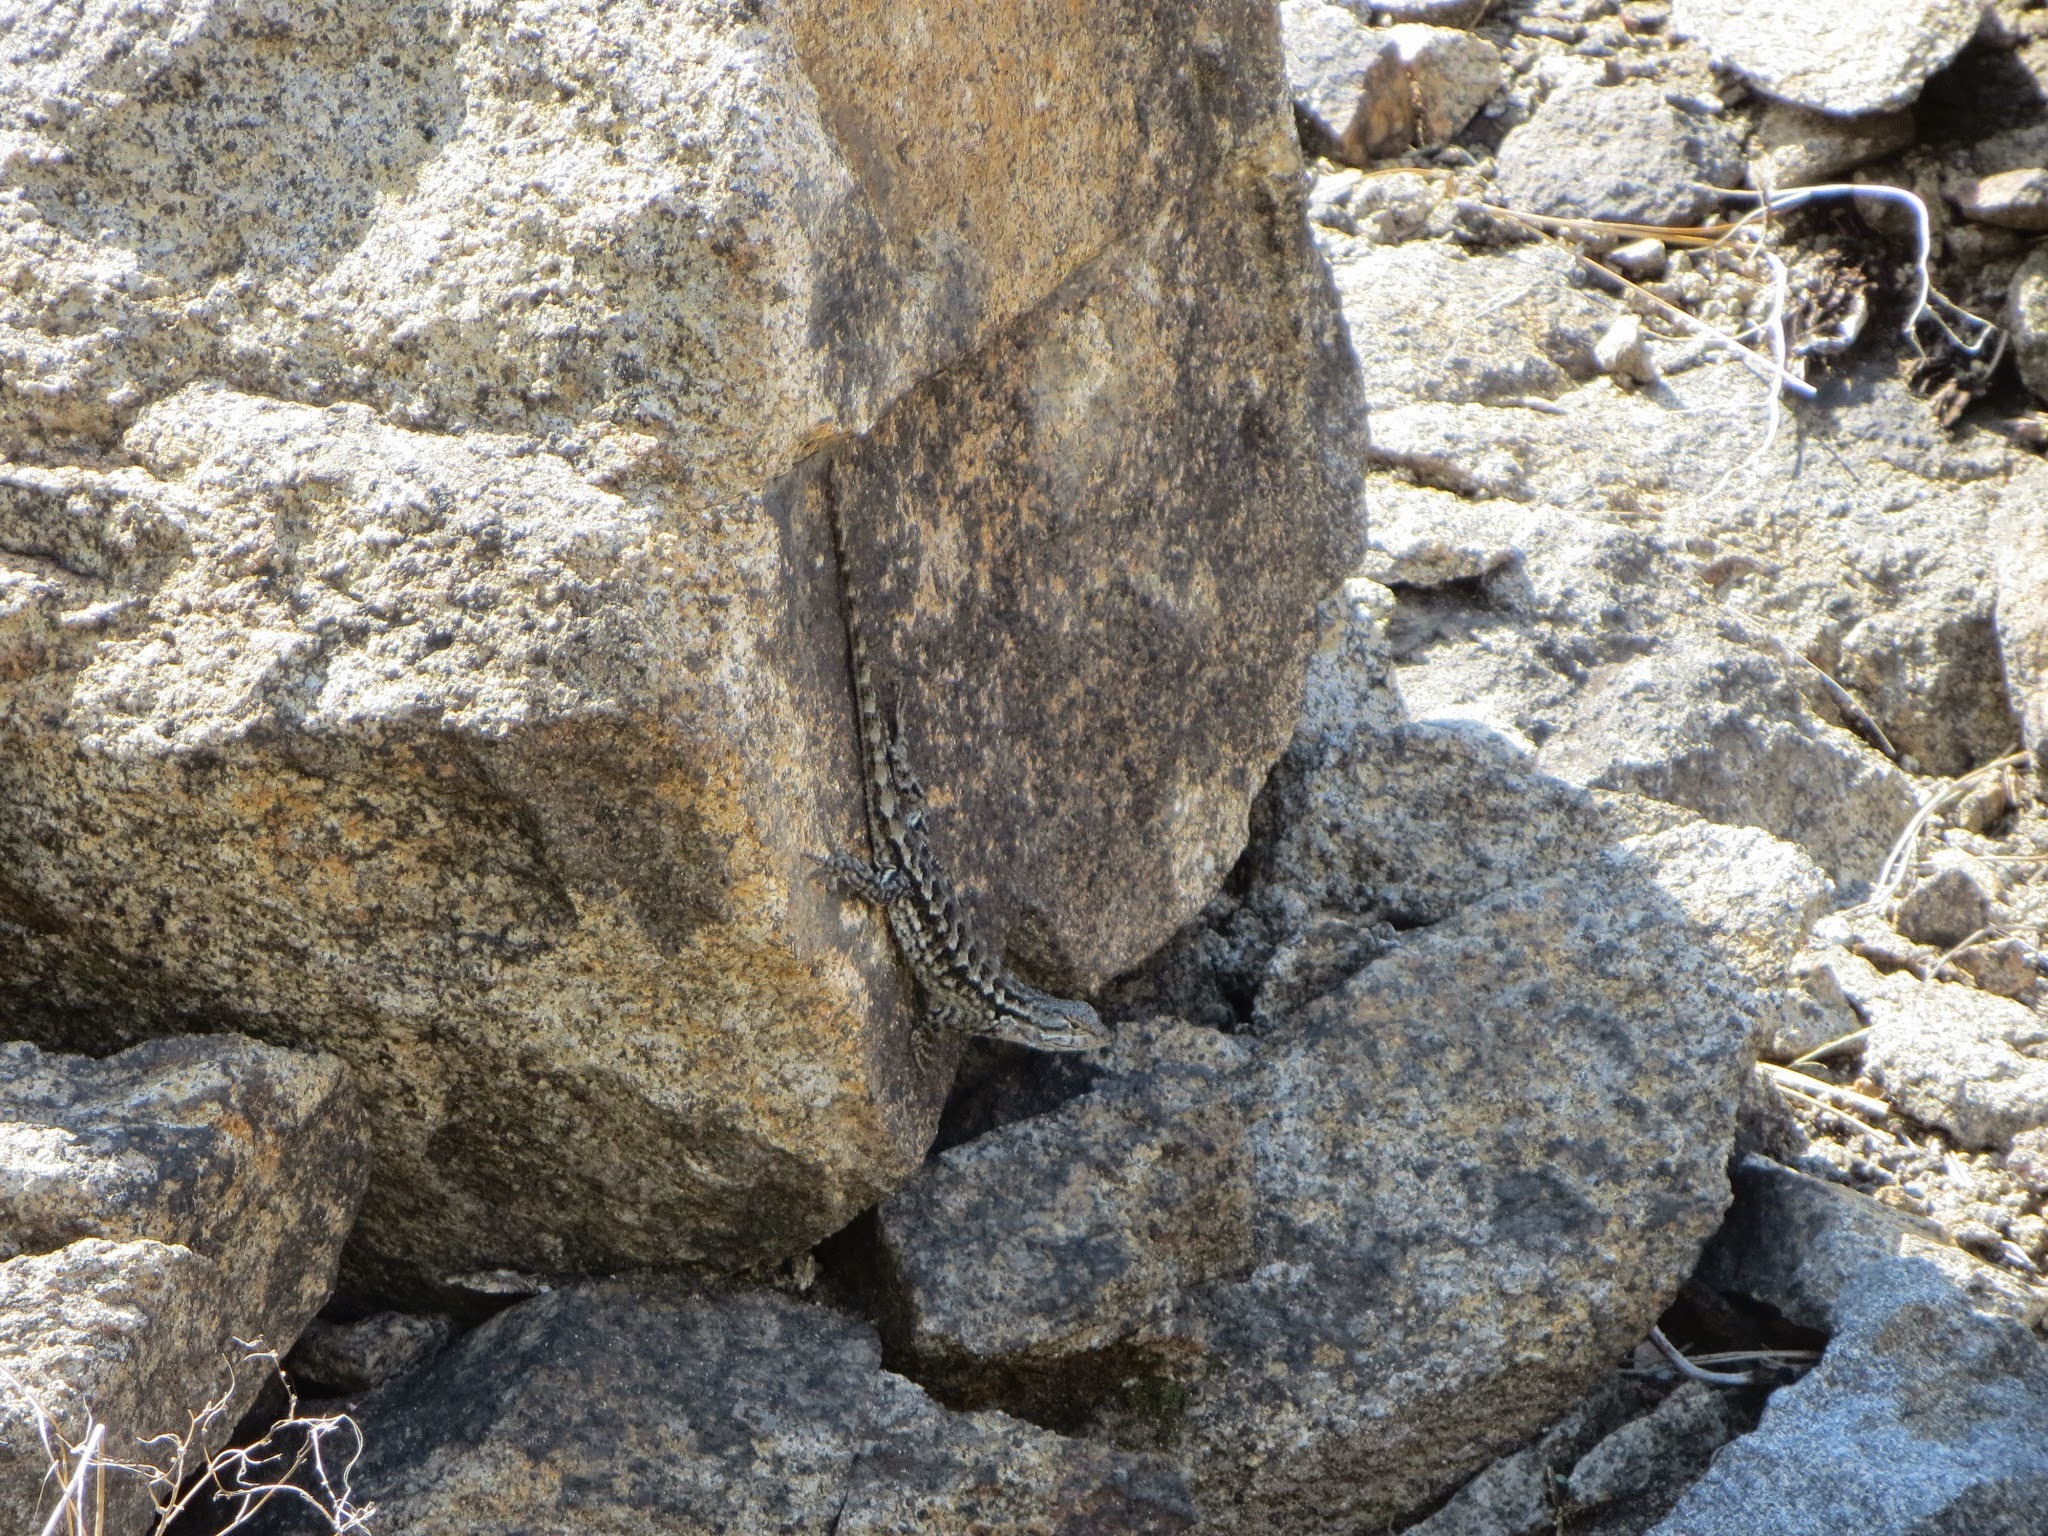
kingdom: Animalia
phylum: Chordata
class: Squamata
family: Phrynosomatidae
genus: Sceloporus
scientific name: Sceloporus occidentalis
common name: Western fence lizard
